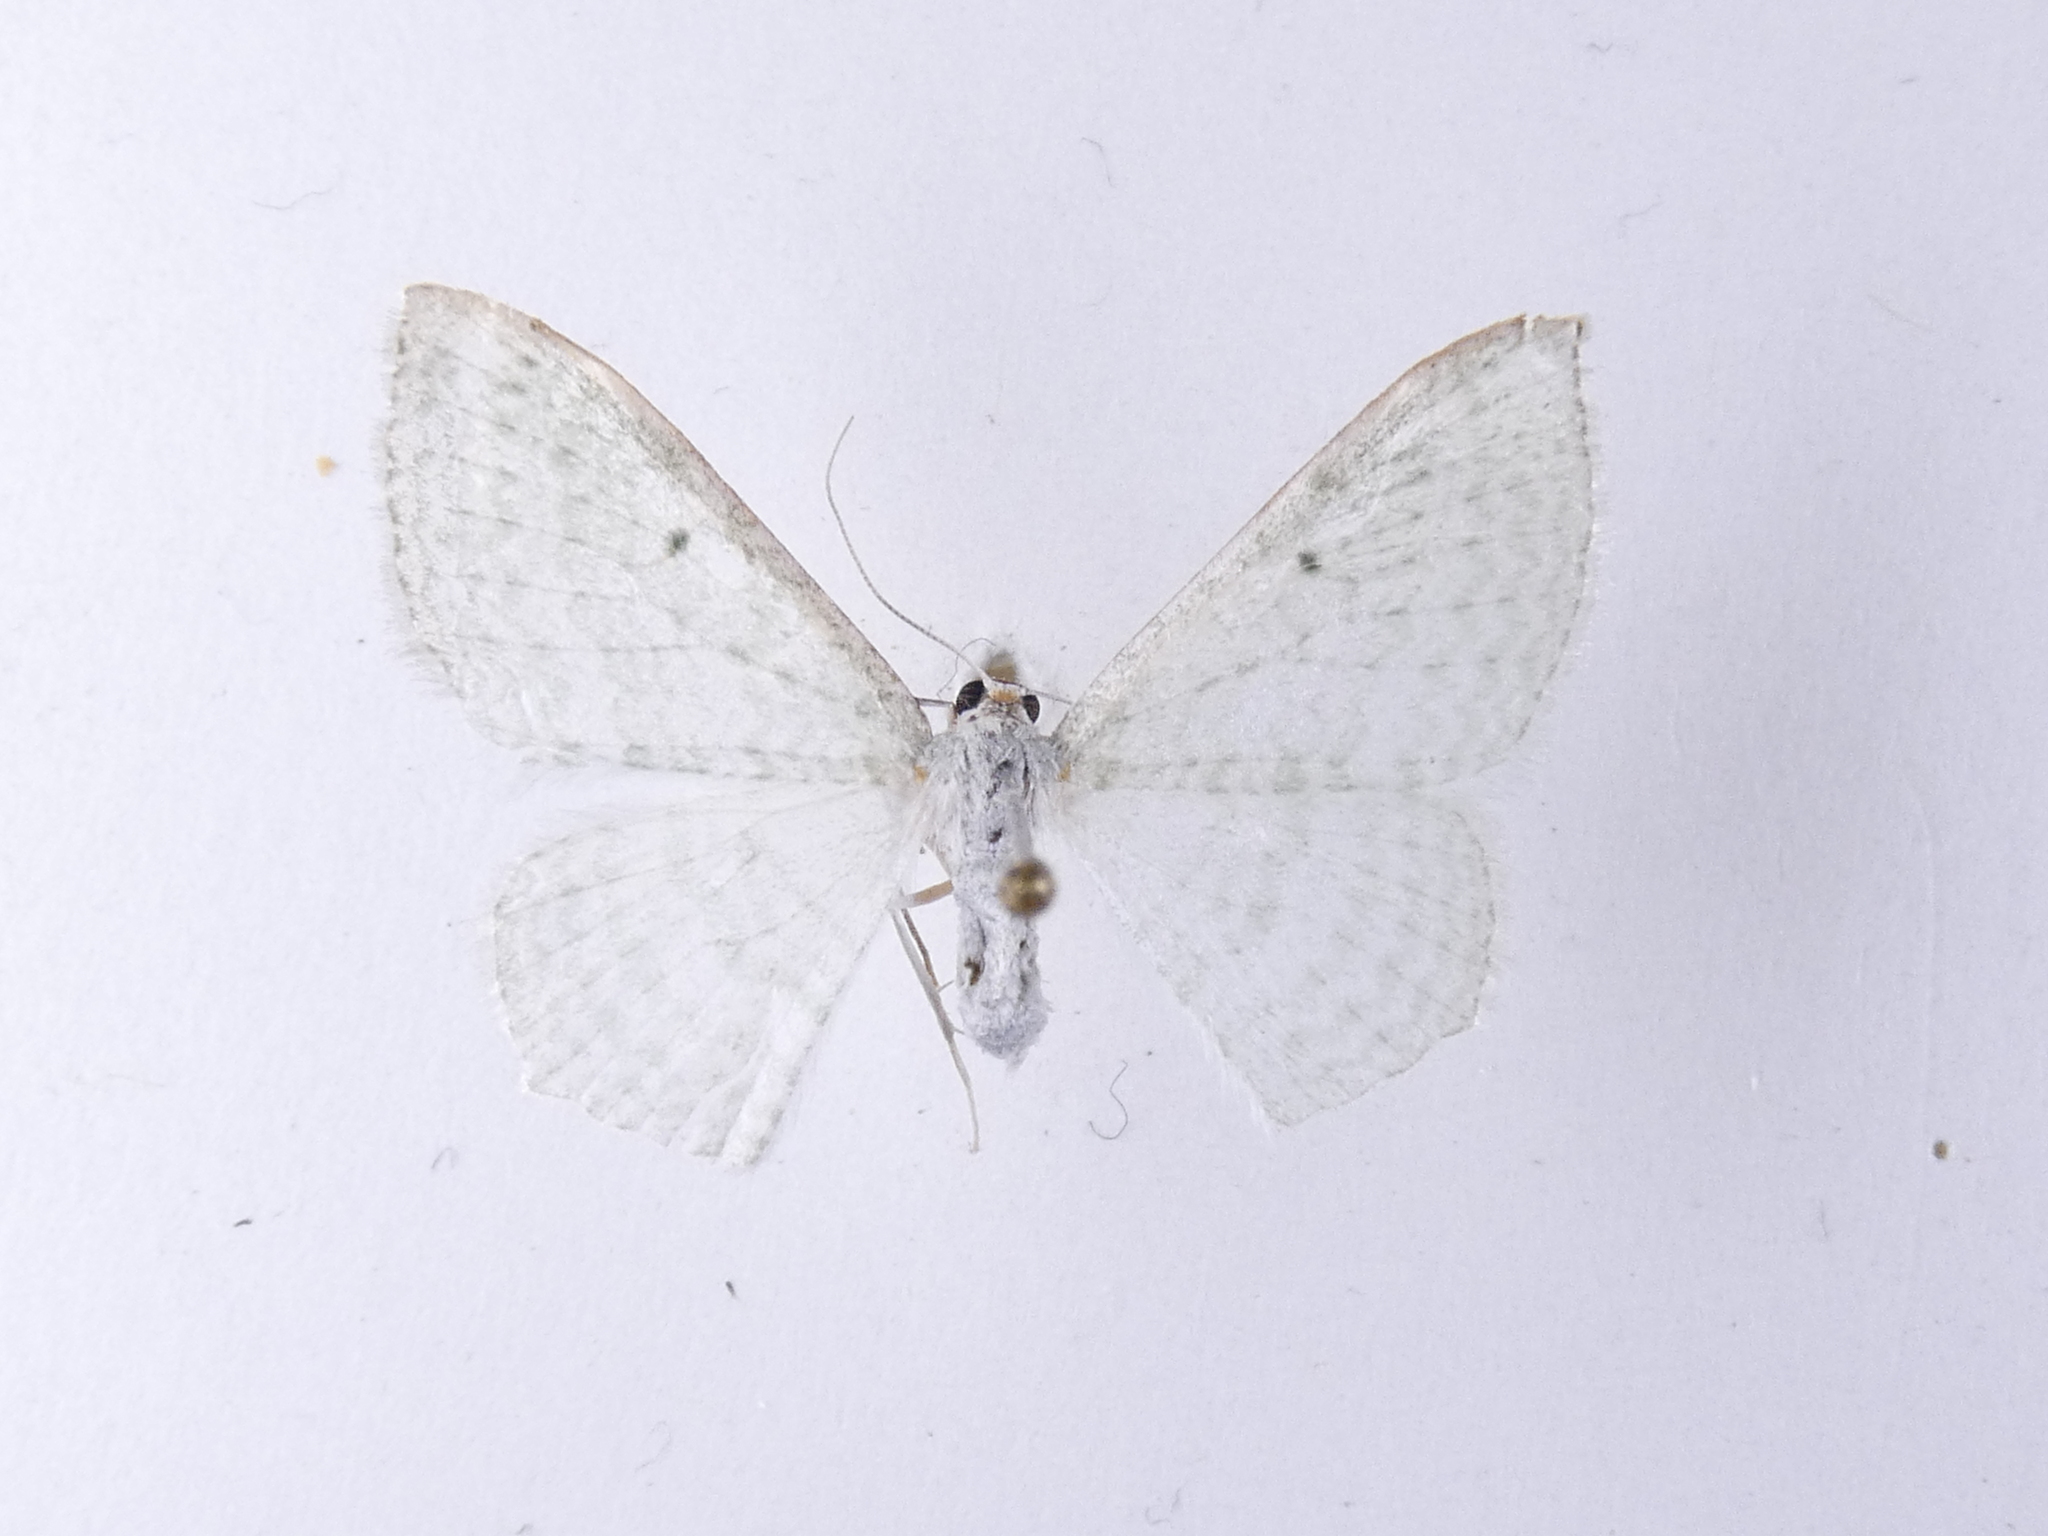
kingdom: Animalia
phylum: Arthropoda
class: Insecta
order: Lepidoptera
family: Geometridae
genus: Poecilasthena
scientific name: Poecilasthena pulchraria
